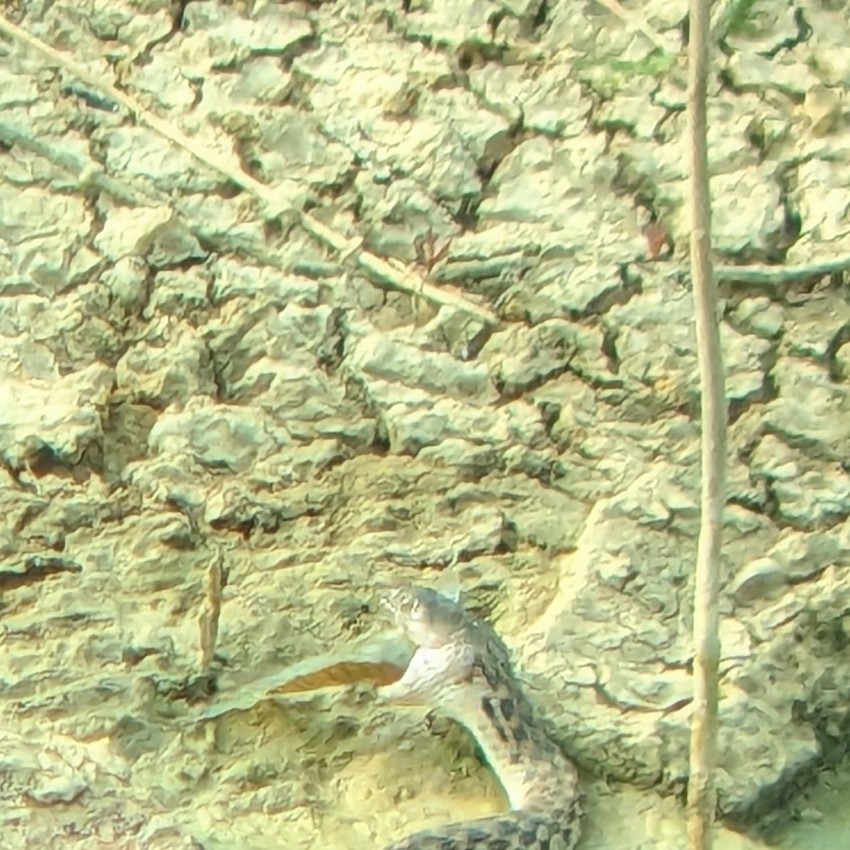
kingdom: Animalia
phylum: Chordata
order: Perciformes
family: Cichlidae
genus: Oreochromis
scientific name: Oreochromis niloticus
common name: Nile tilapia
